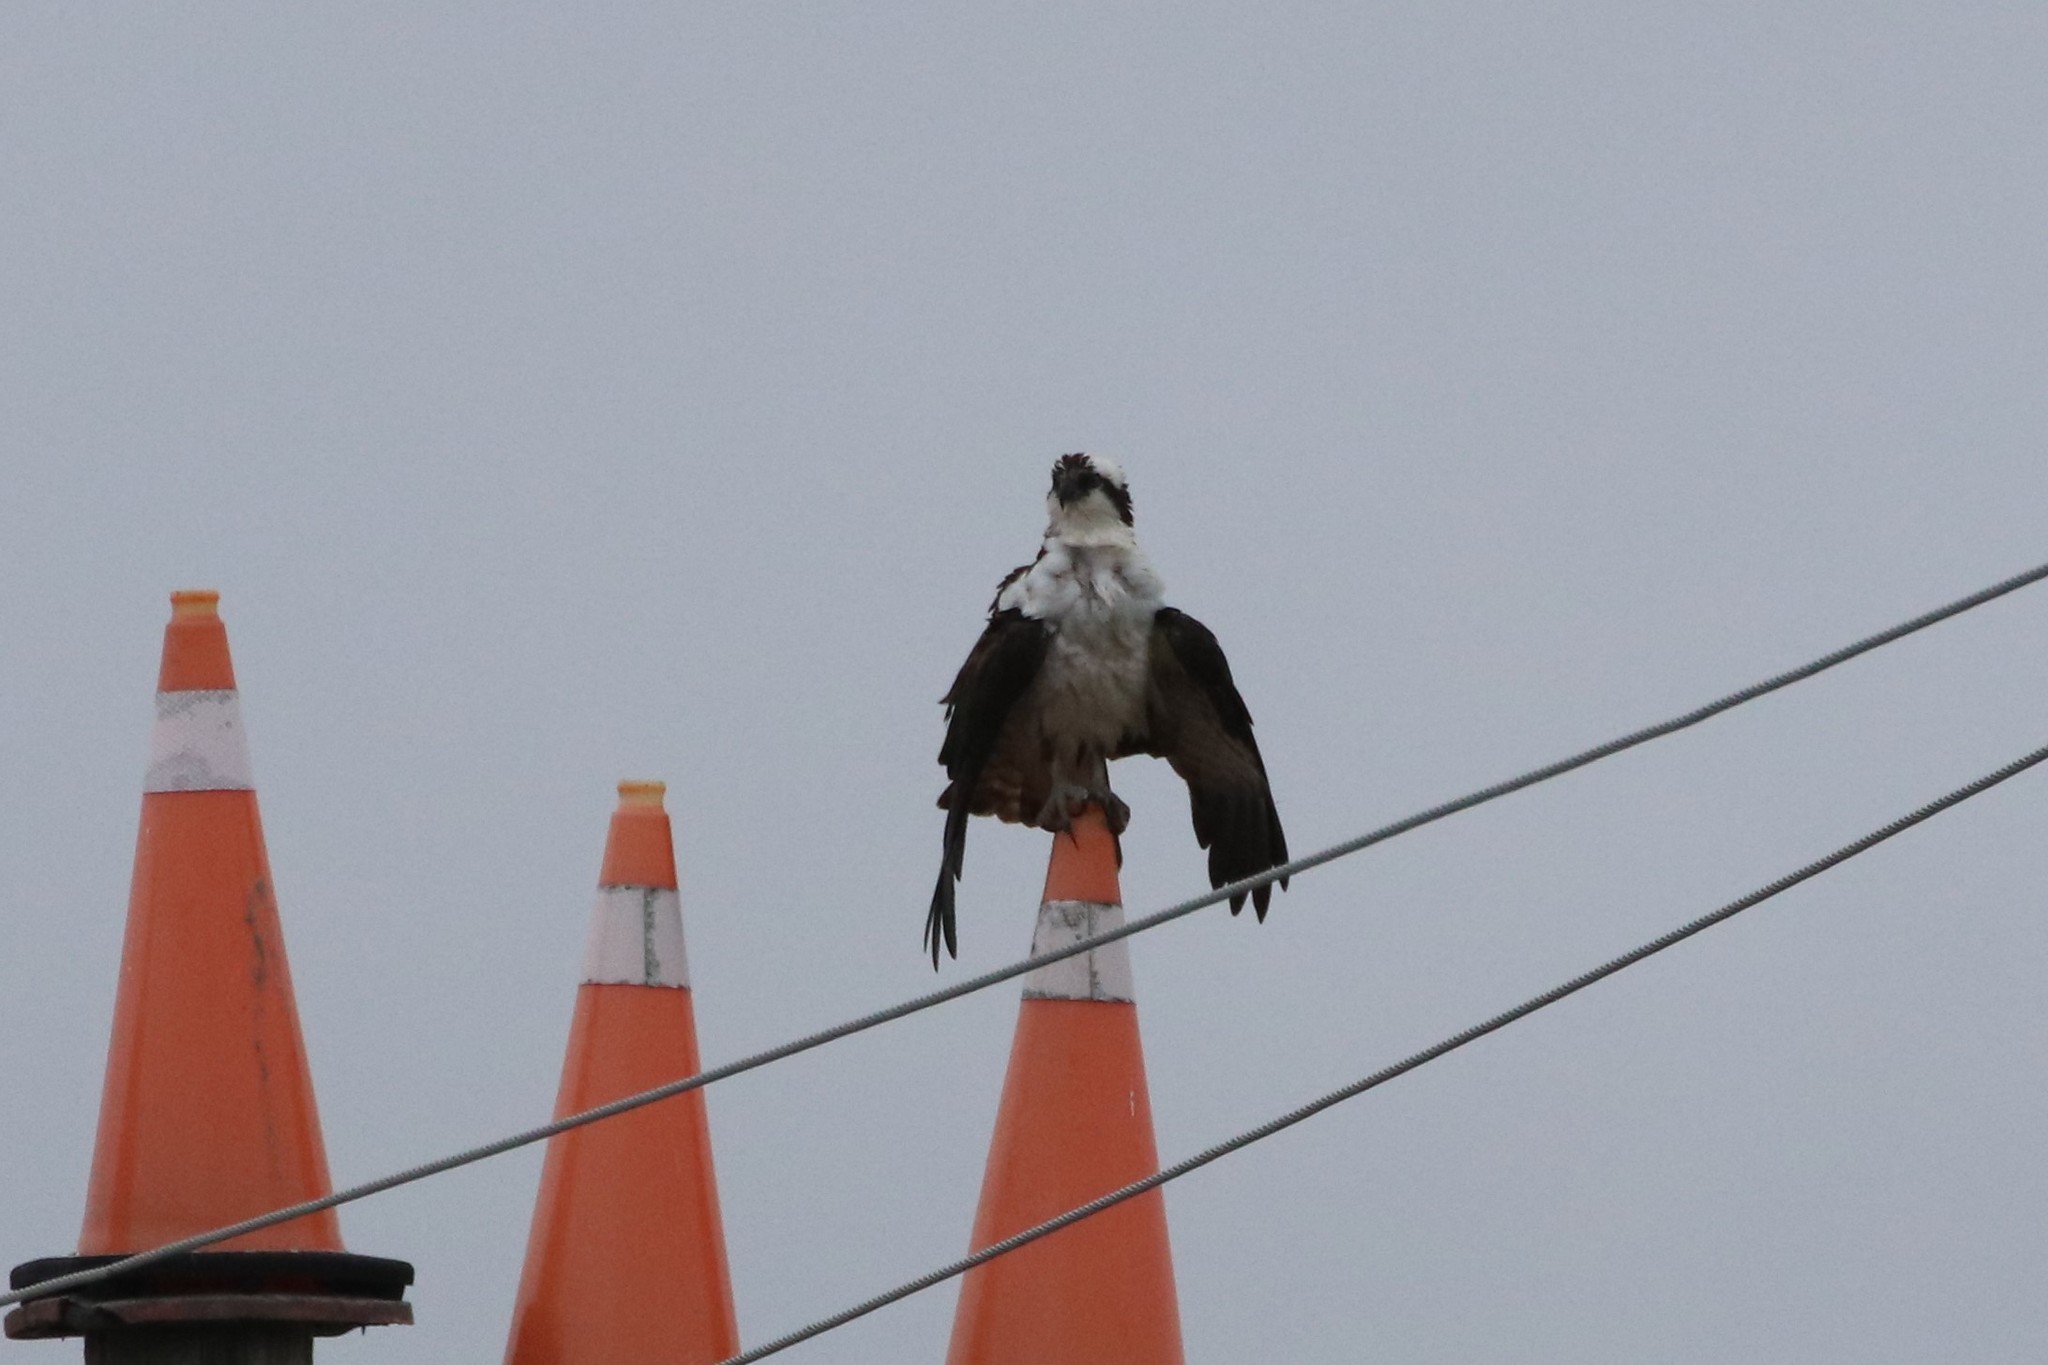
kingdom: Animalia
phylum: Chordata
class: Aves
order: Accipitriformes
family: Pandionidae
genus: Pandion
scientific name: Pandion haliaetus
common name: Osprey
